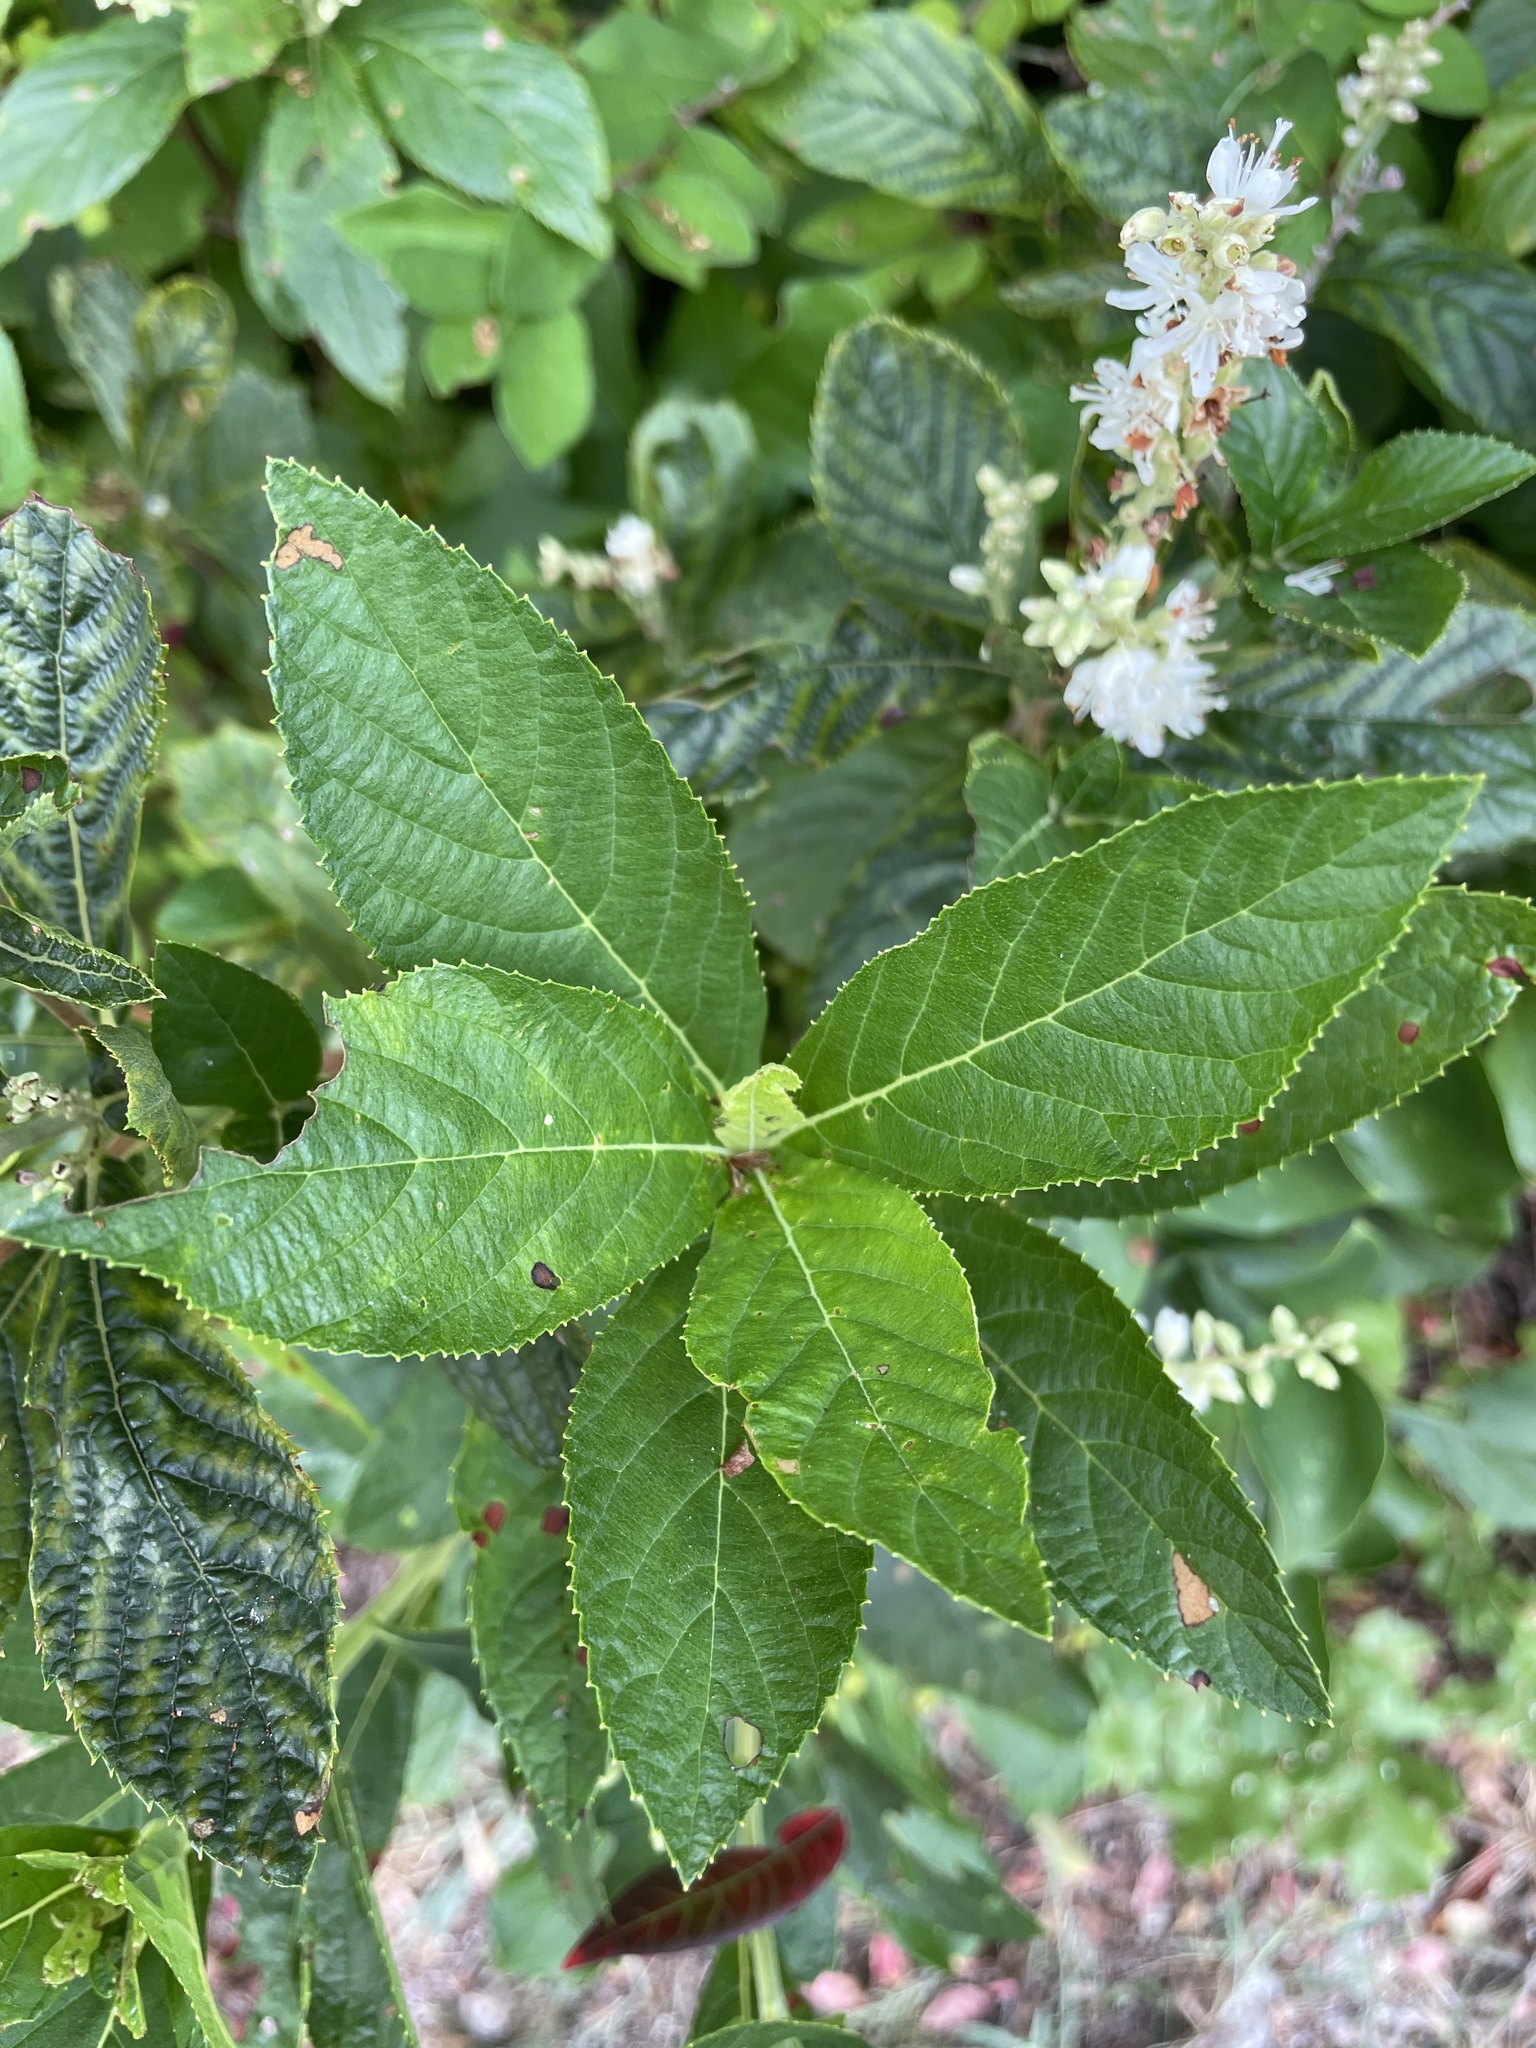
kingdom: Plantae
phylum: Tracheophyta
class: Magnoliopsida
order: Ericales
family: Clethraceae
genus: Clethra
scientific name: Clethra alnifolia
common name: Sweet pepperbush
